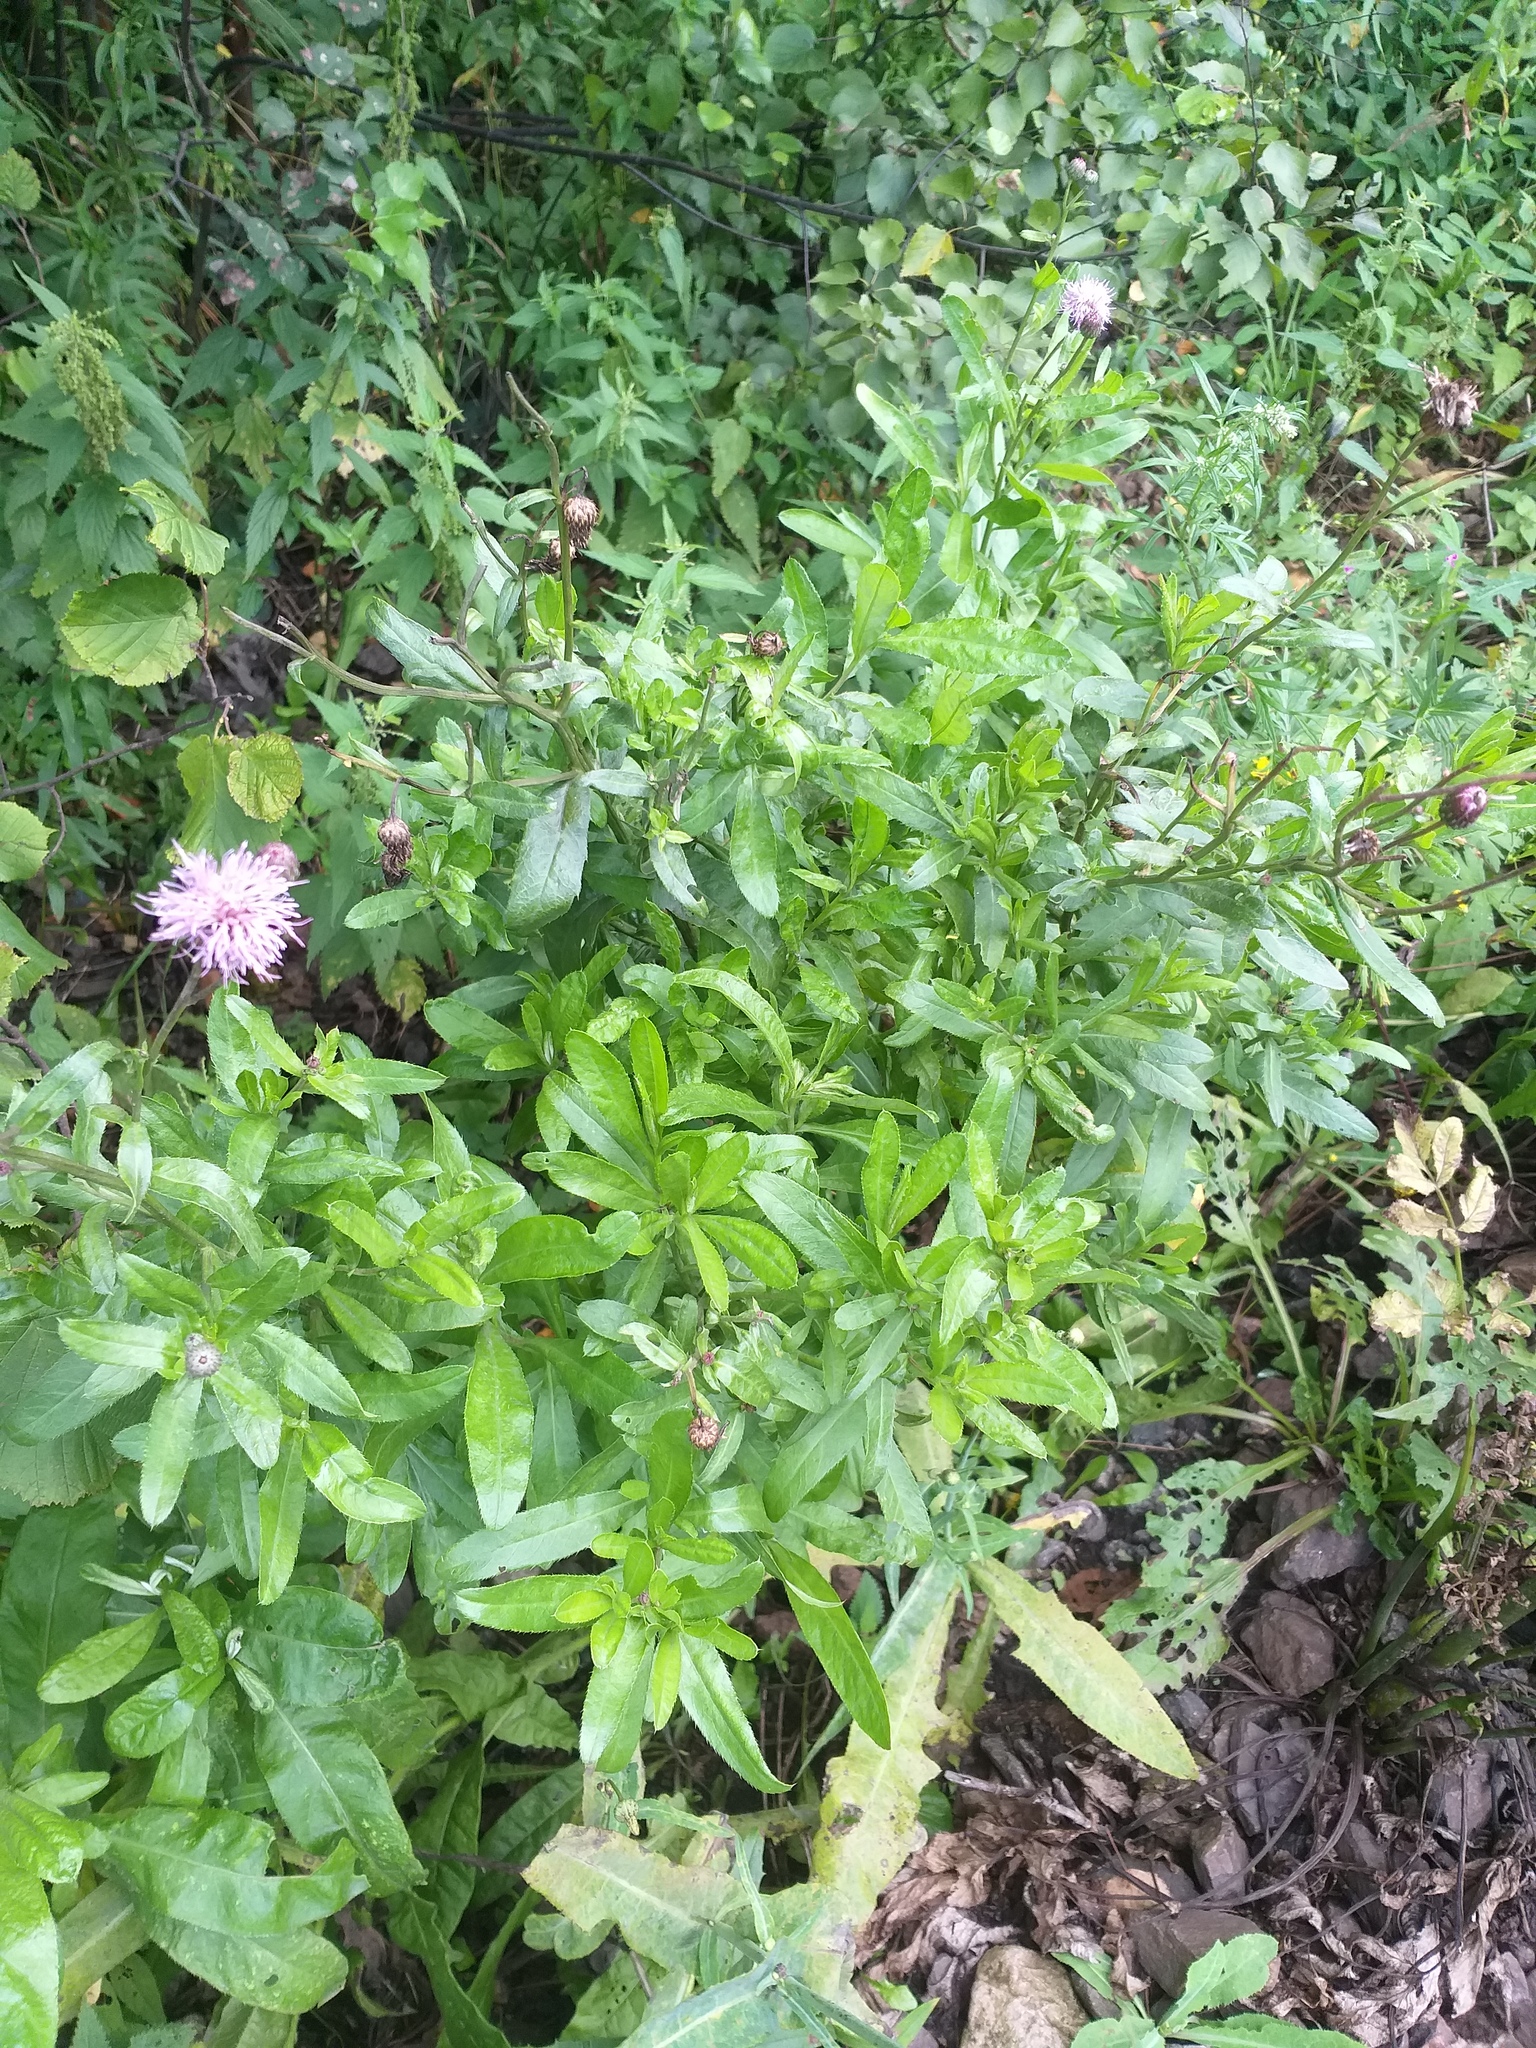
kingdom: Plantae
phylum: Tracheophyta
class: Magnoliopsida
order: Asterales
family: Asteraceae
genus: Cirsium
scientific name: Cirsium arvense
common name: Creeping thistle
